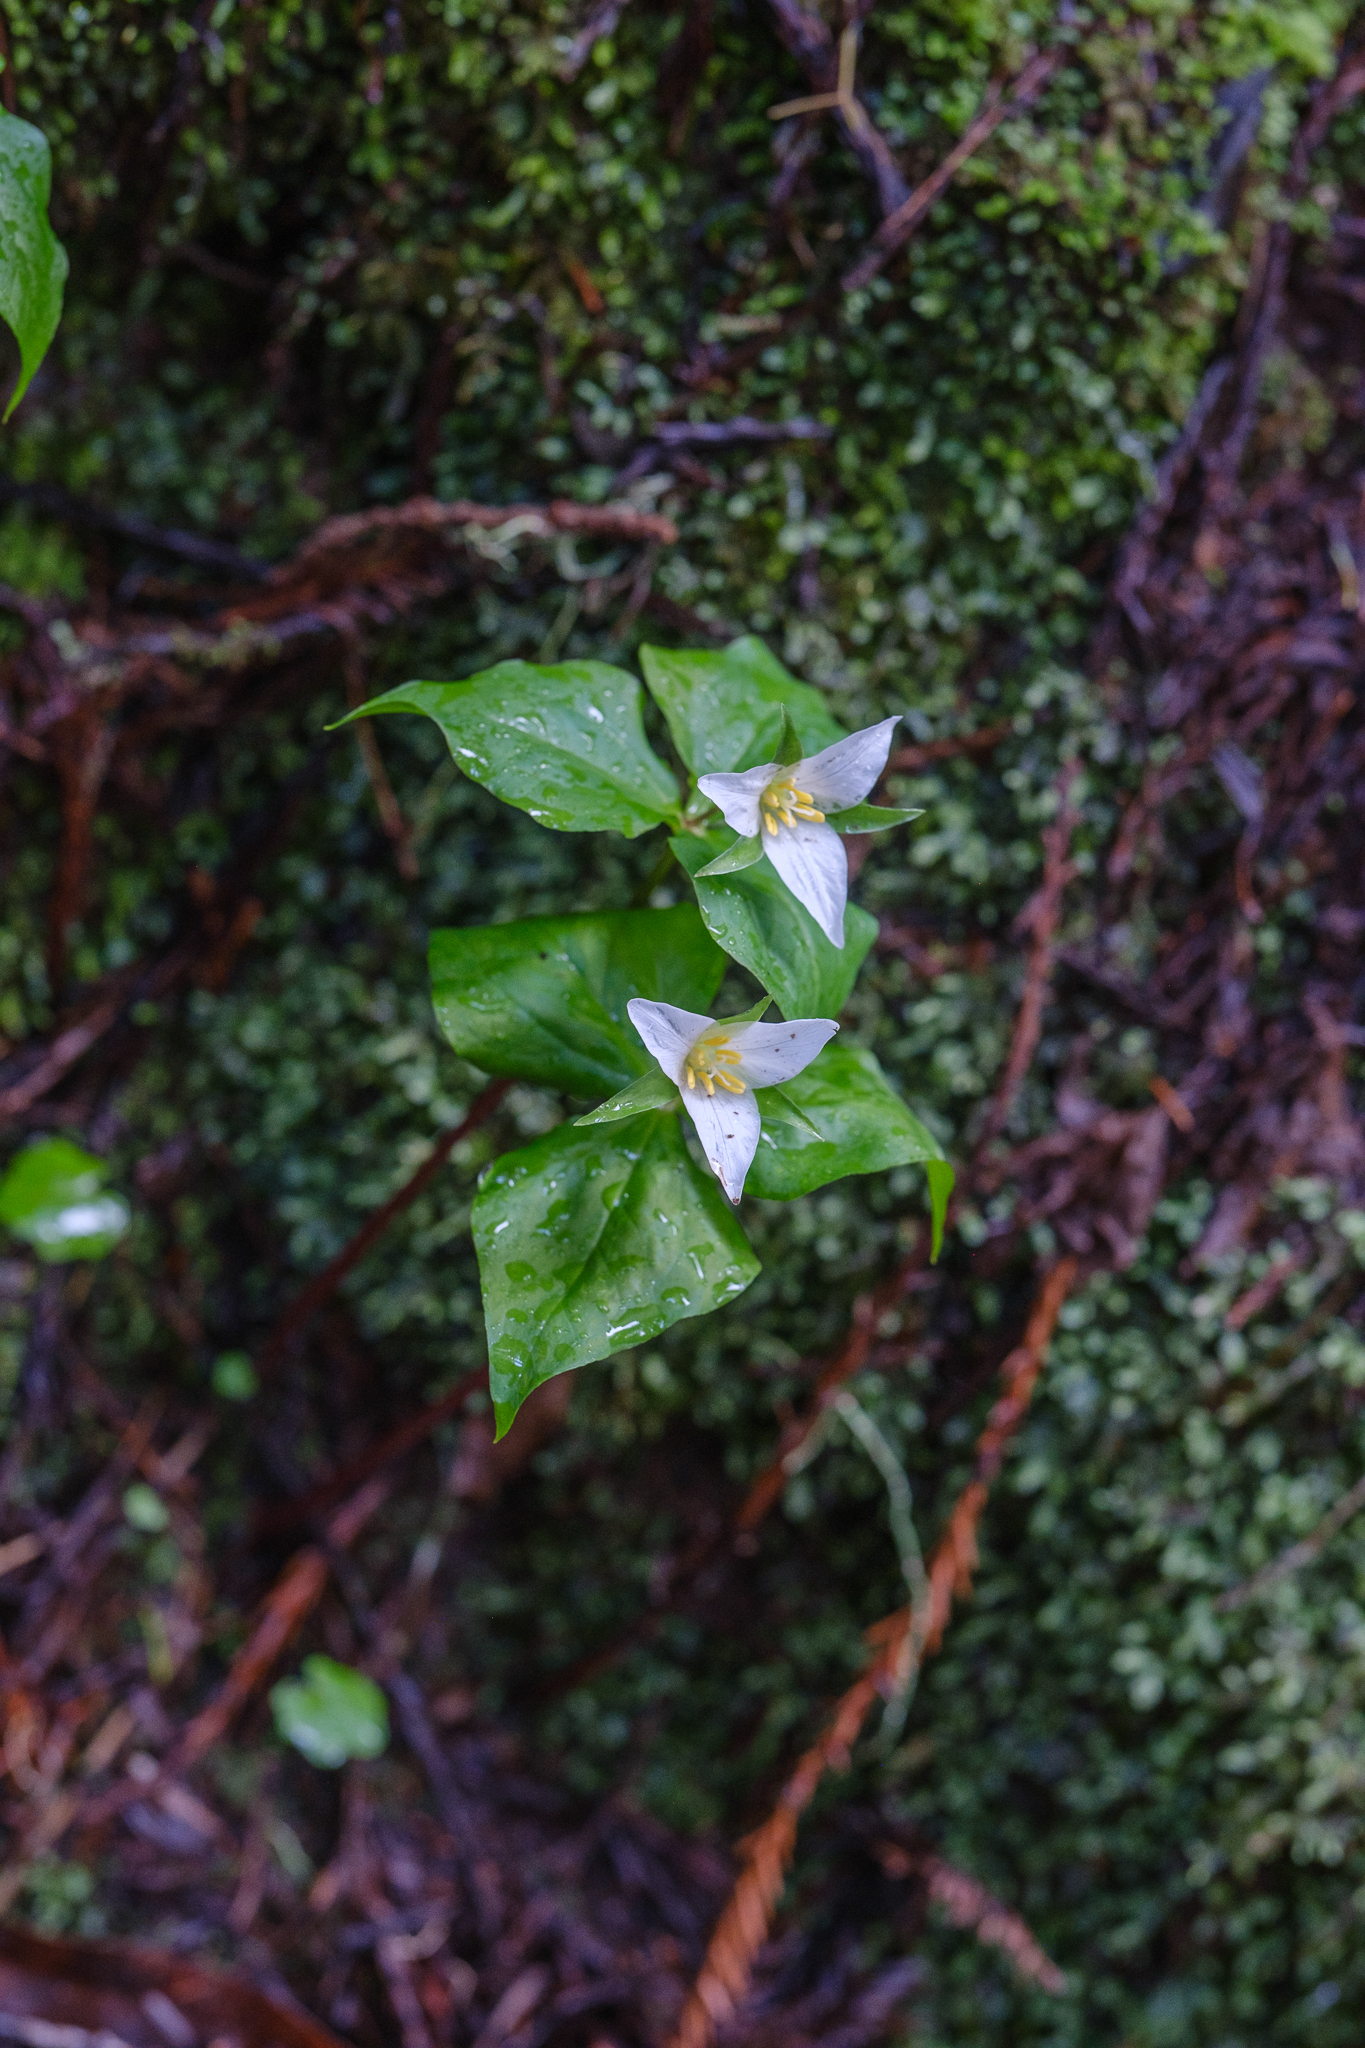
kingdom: Plantae
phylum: Tracheophyta
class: Liliopsida
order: Liliales
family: Melanthiaceae
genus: Trillium
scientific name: Trillium ovatum
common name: Pacific trillium
